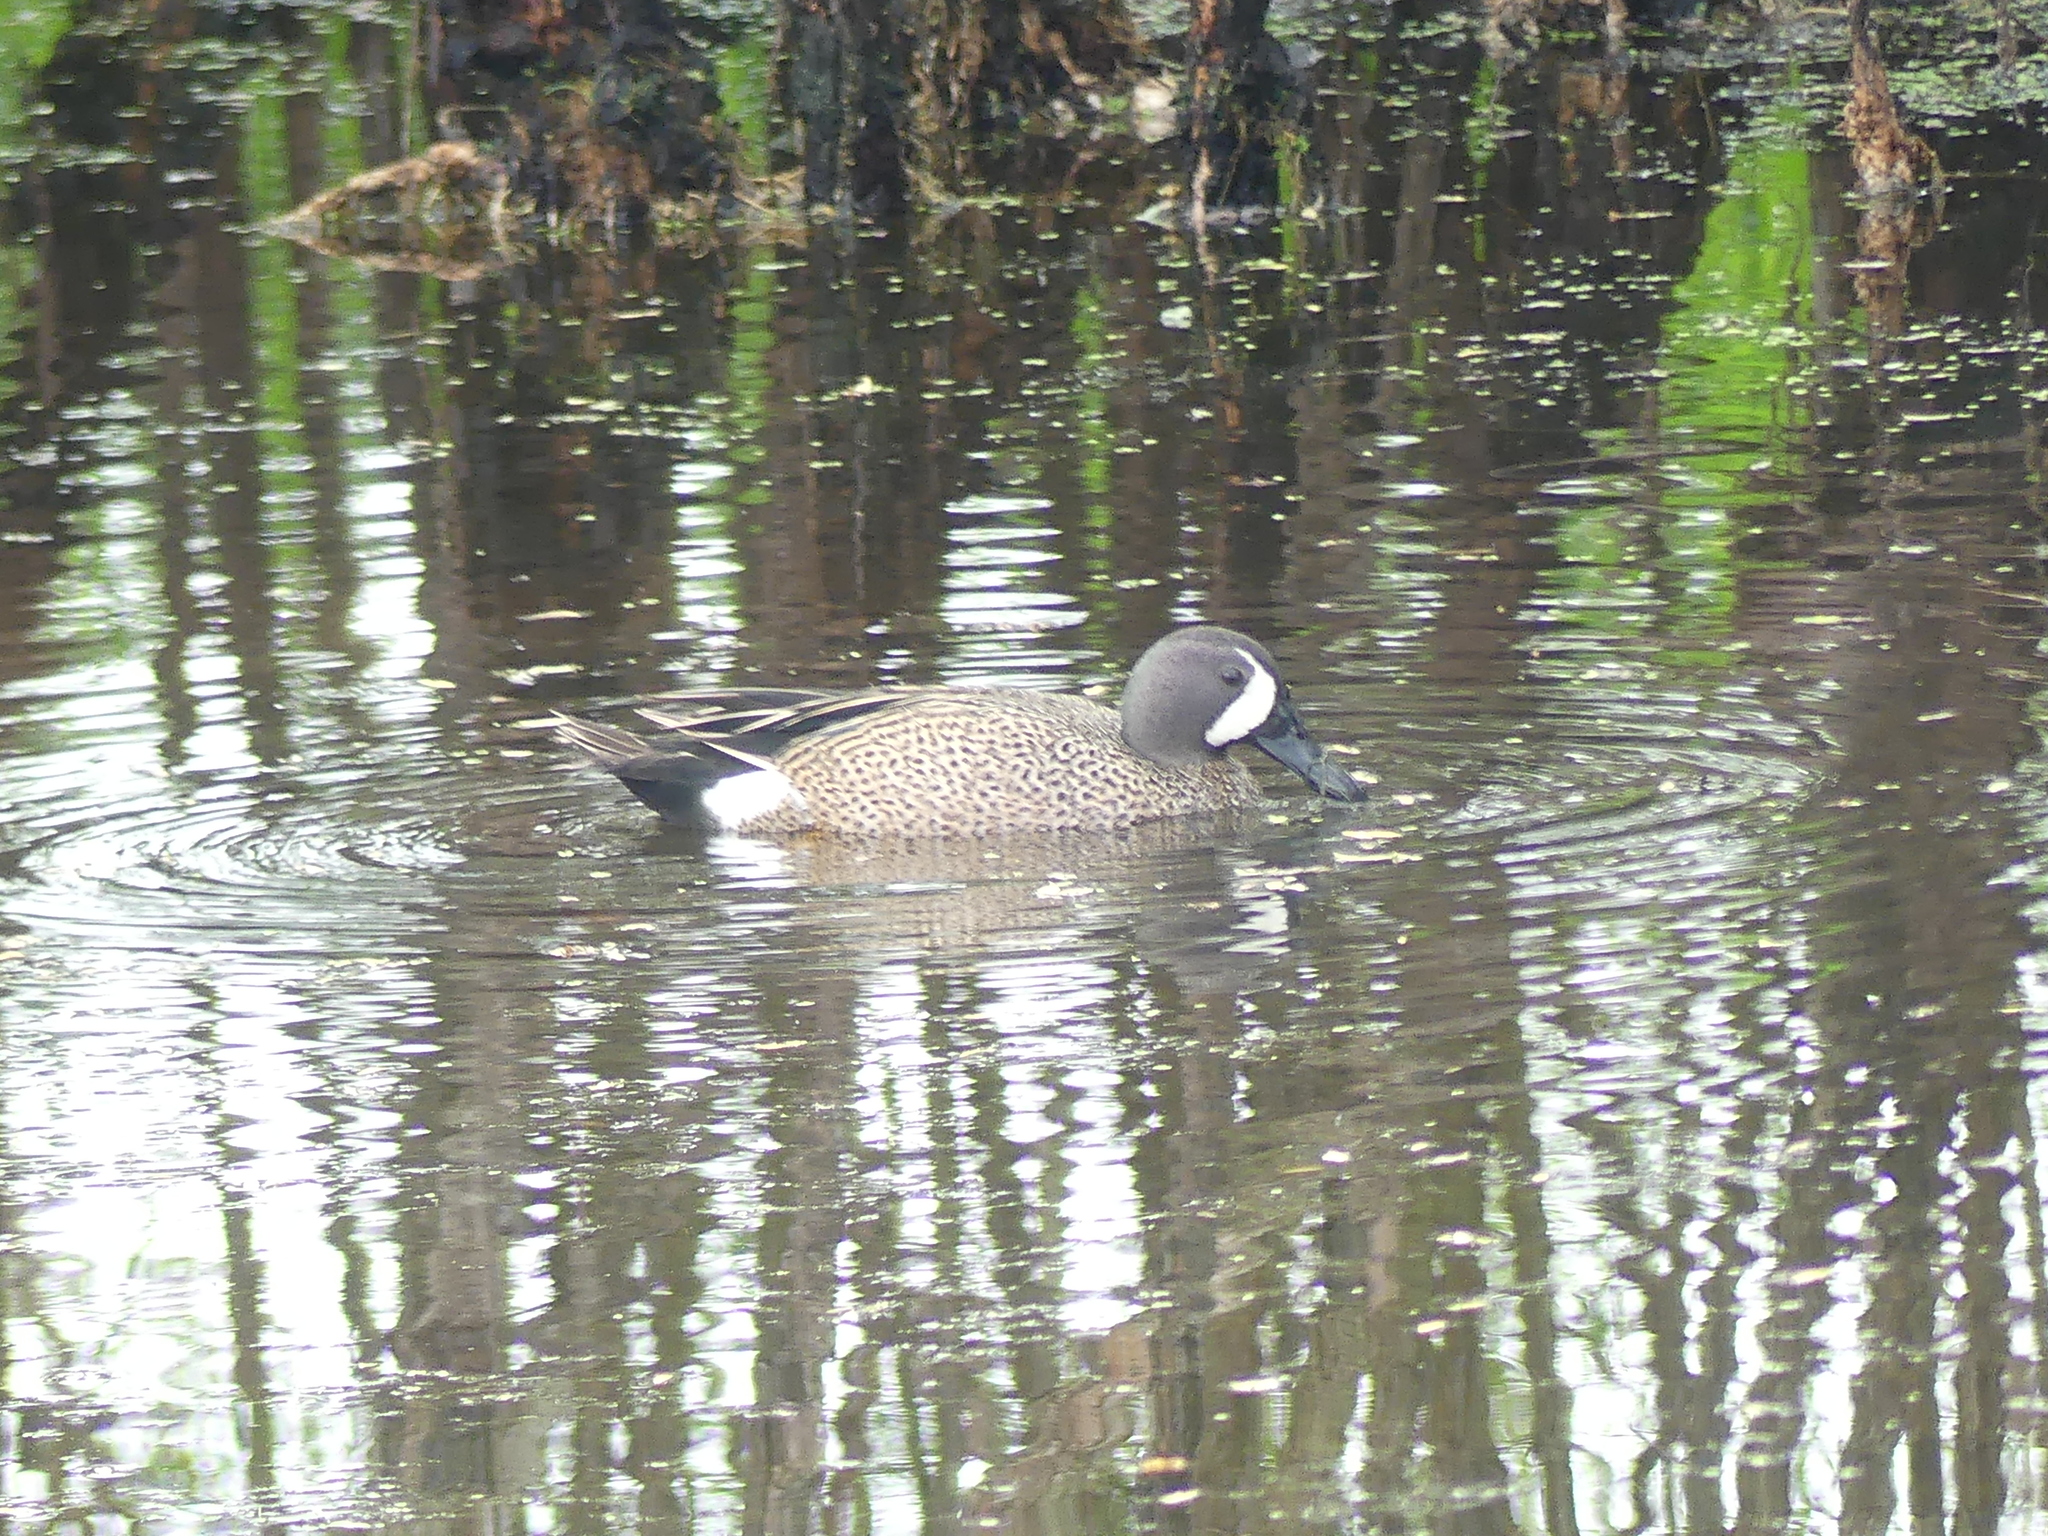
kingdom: Animalia
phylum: Chordata
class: Aves
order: Anseriformes
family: Anatidae
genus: Spatula
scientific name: Spatula discors
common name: Blue-winged teal
